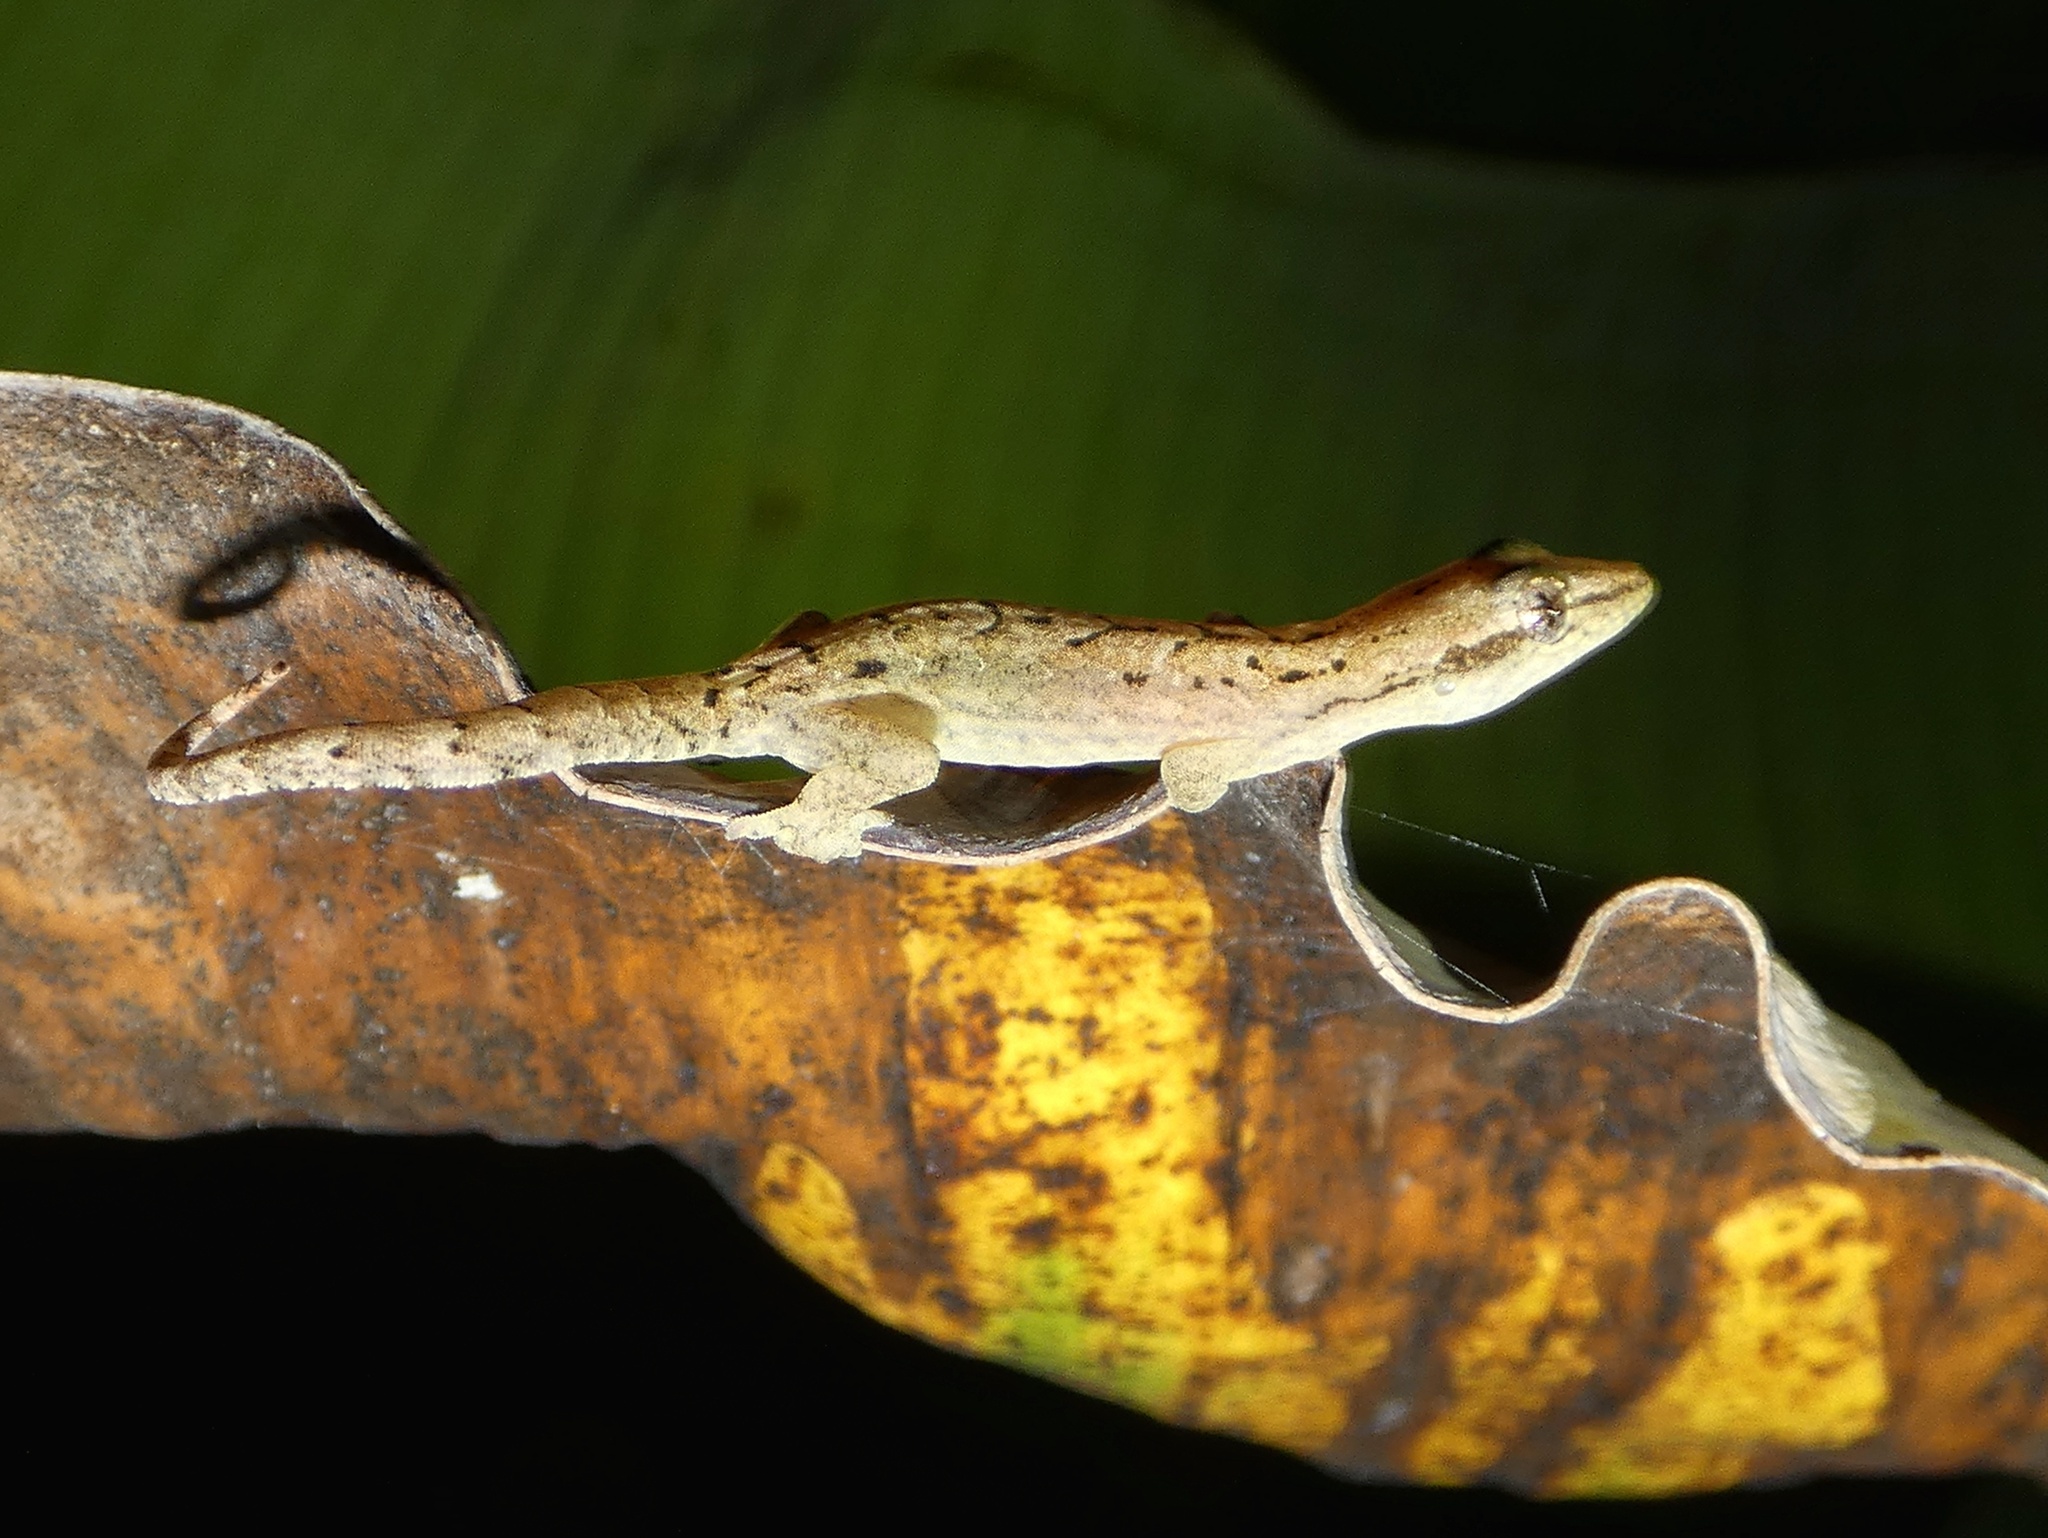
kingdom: Animalia
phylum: Chordata
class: Squamata
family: Gekkonidae
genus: Lepidodactylus
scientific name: Lepidodactylus herrei
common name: Negros scaly-toed gecko
